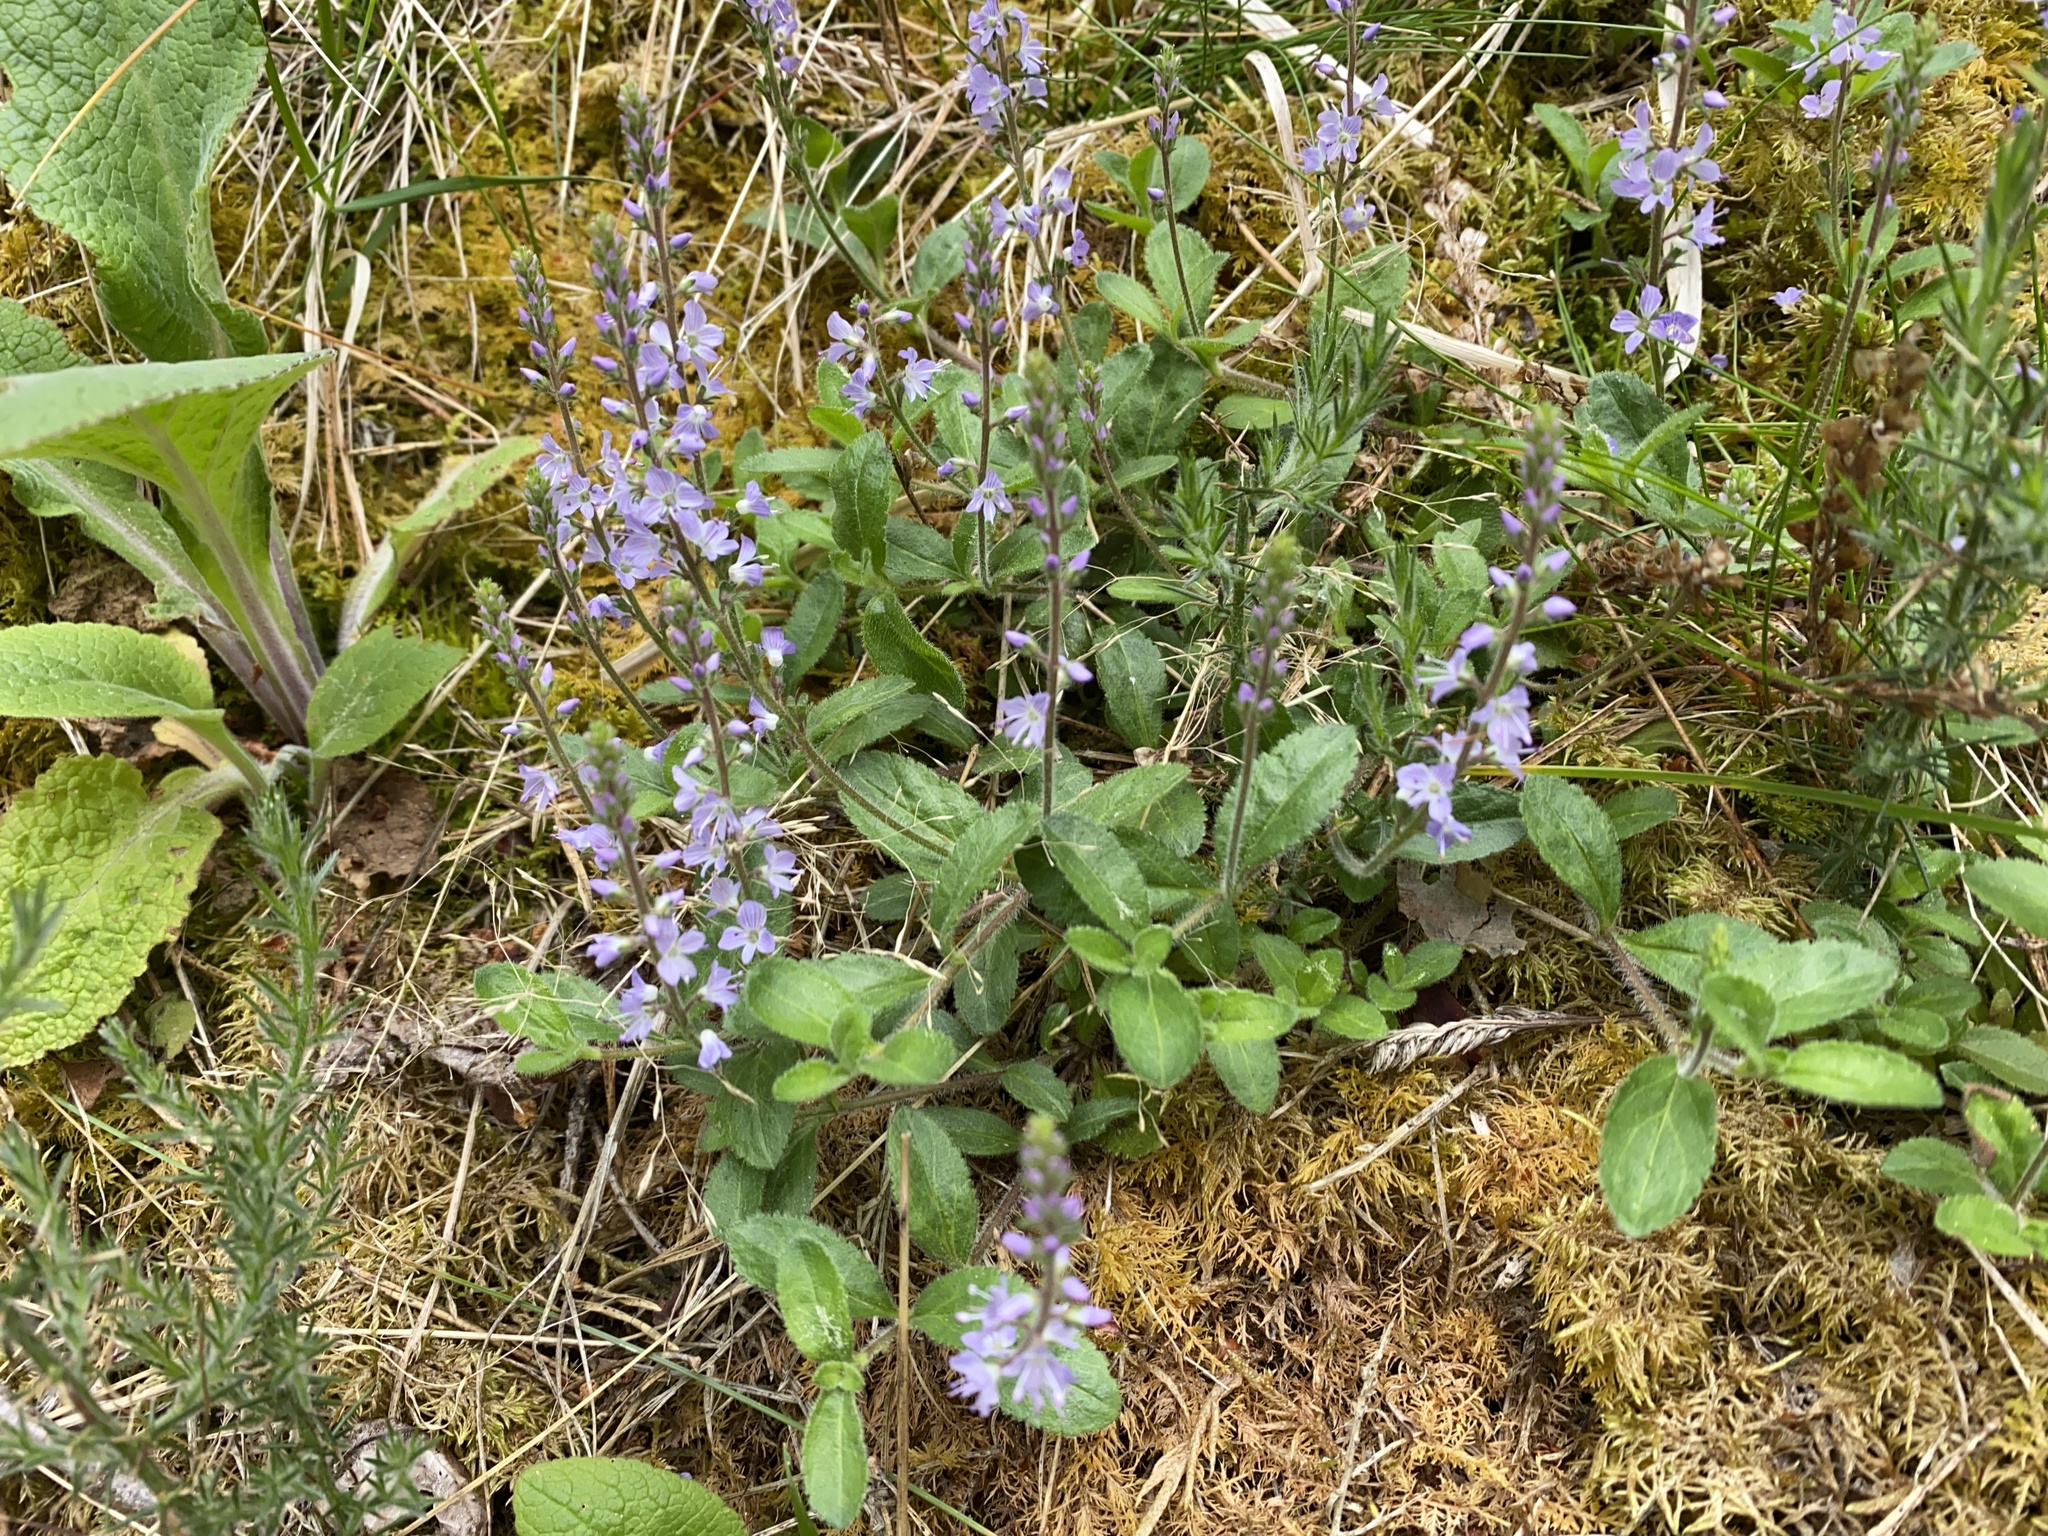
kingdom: Plantae
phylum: Tracheophyta
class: Magnoliopsida
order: Lamiales
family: Plantaginaceae
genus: Veronica
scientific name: Veronica officinalis
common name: Common speedwell
